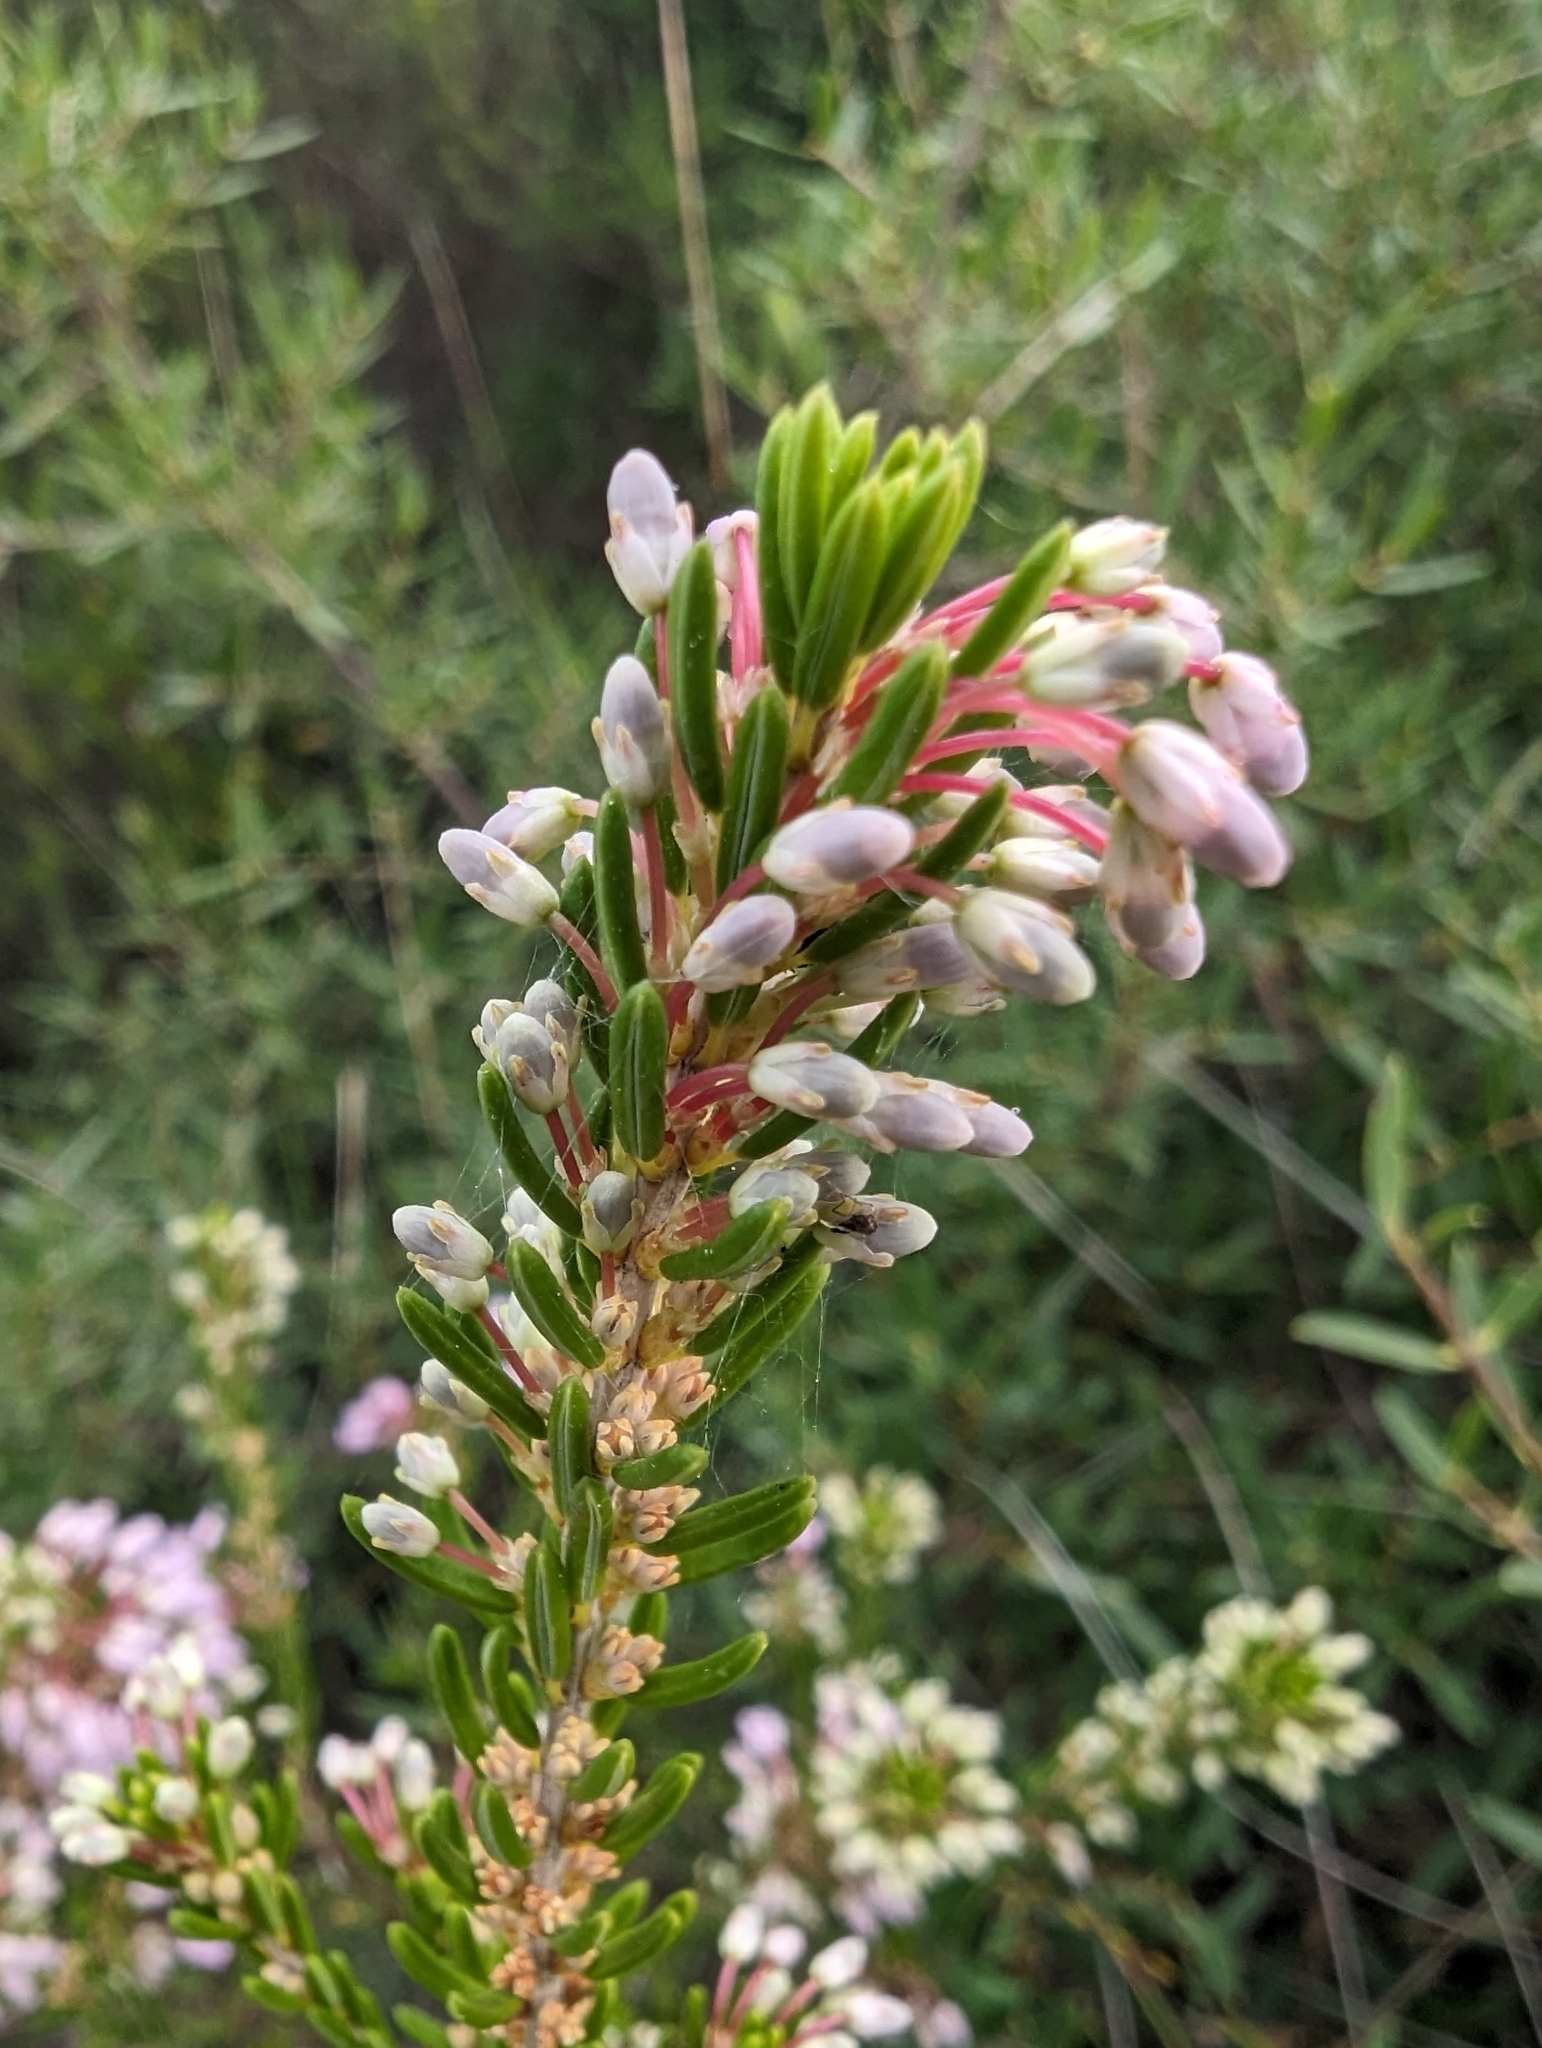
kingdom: Plantae
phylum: Tracheophyta
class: Magnoliopsida
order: Ericales
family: Ericaceae
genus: Erica
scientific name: Erica multiflora
